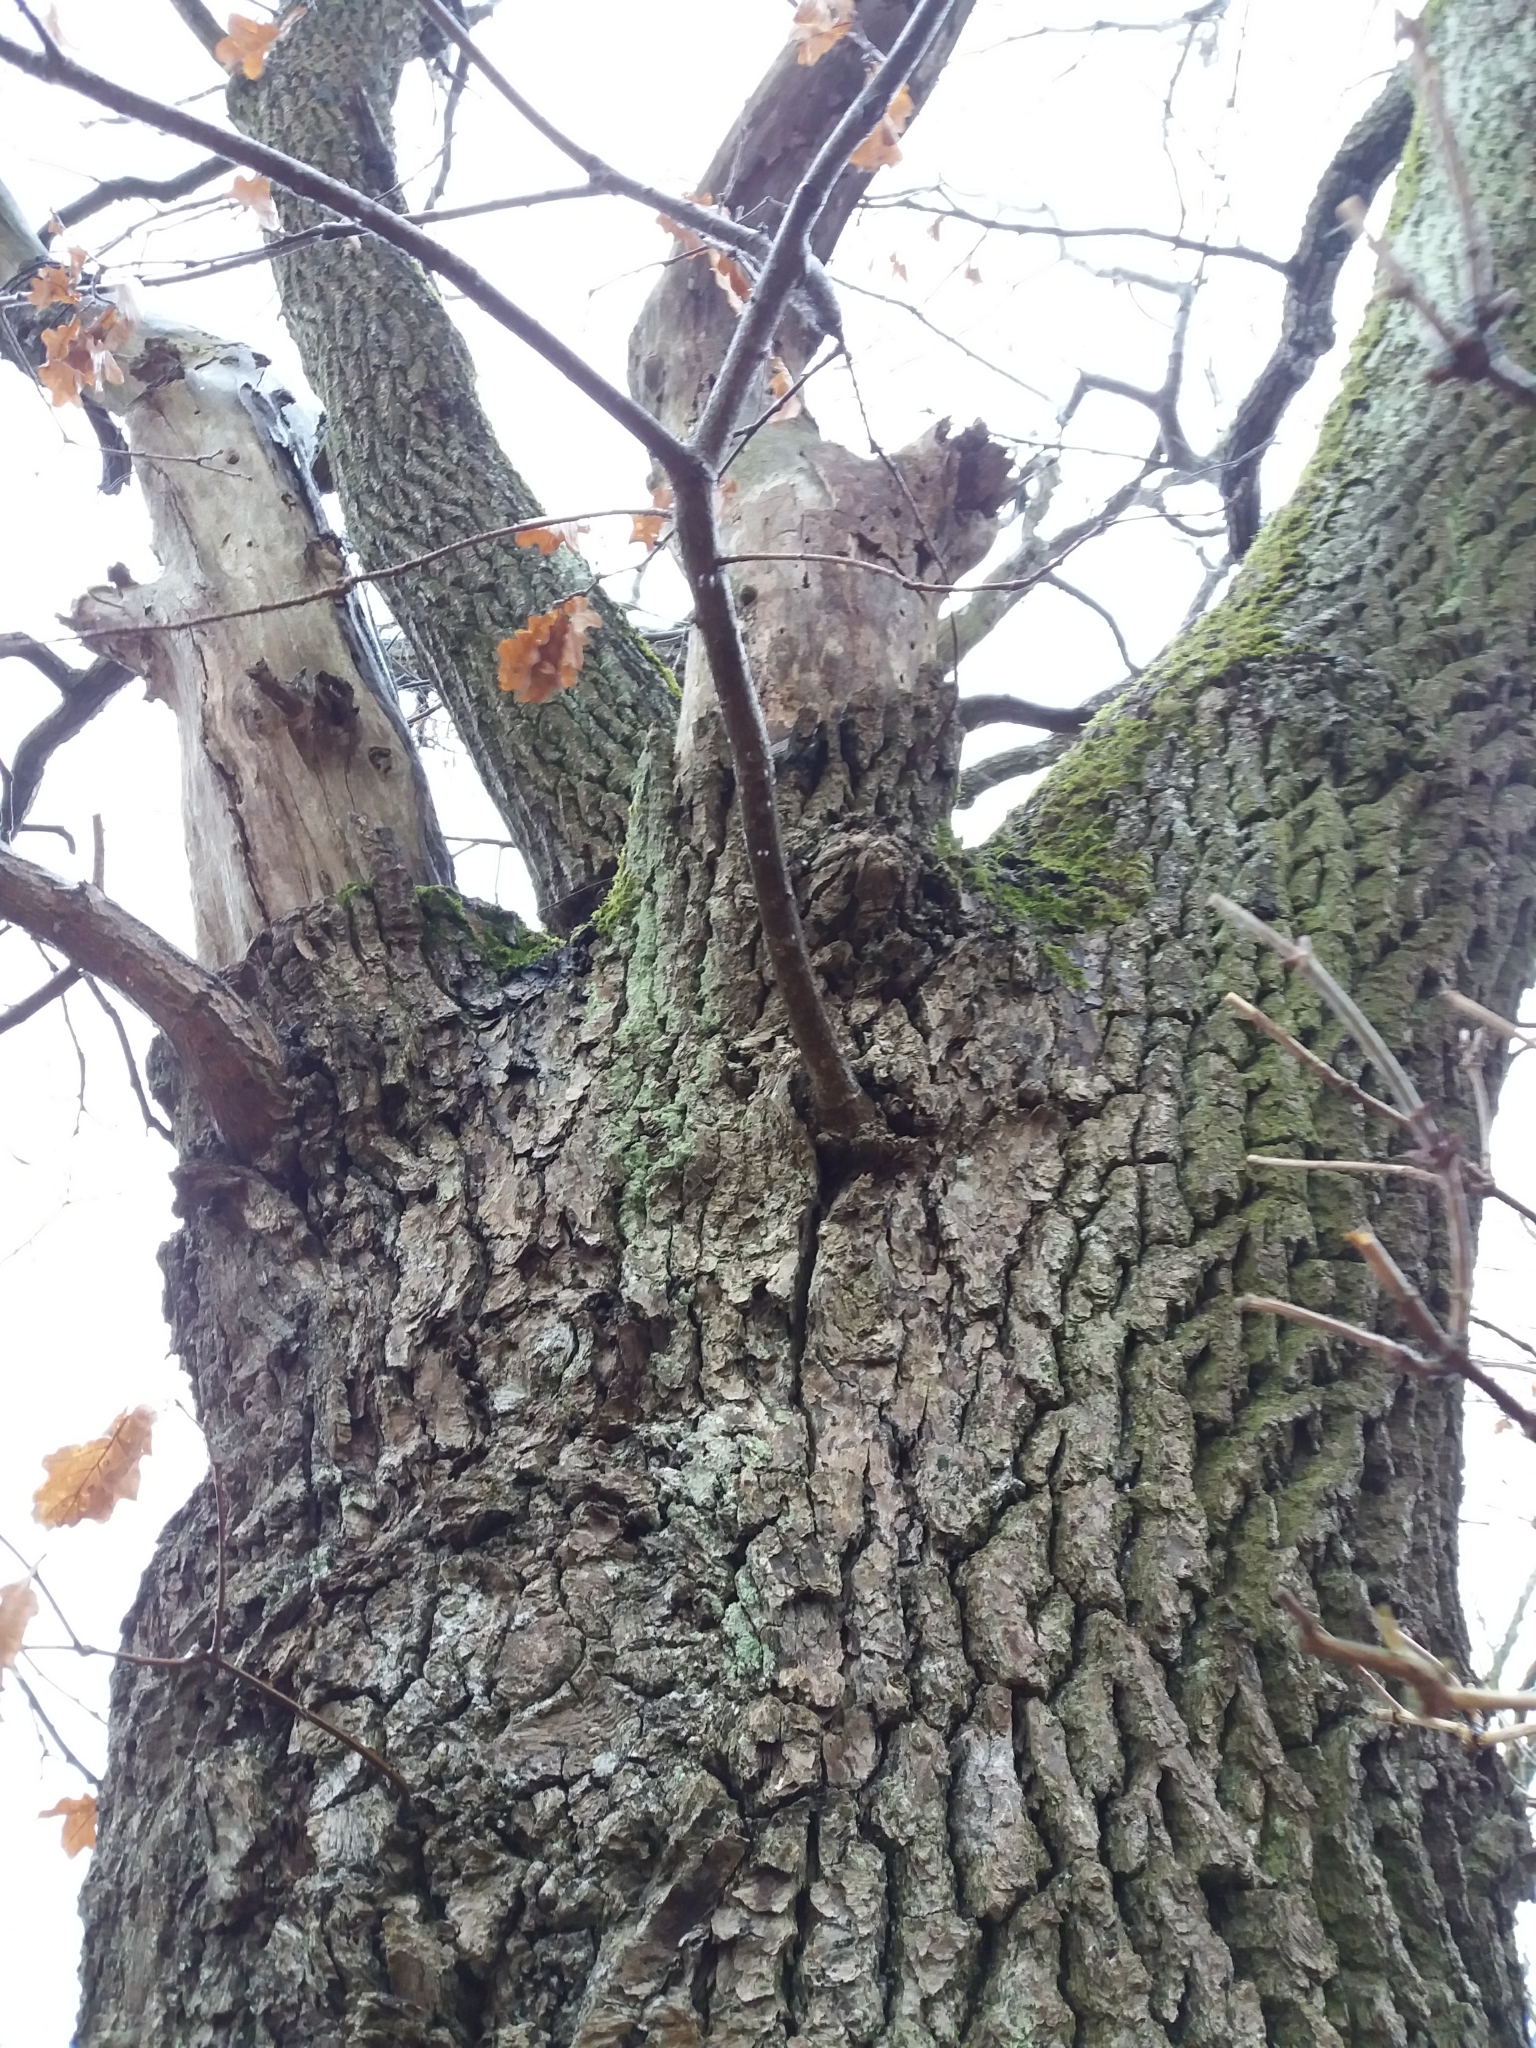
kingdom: Plantae
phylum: Tracheophyta
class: Magnoliopsida
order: Fagales
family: Fagaceae
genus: Quercus
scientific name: Quercus robur
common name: Pedunculate oak
